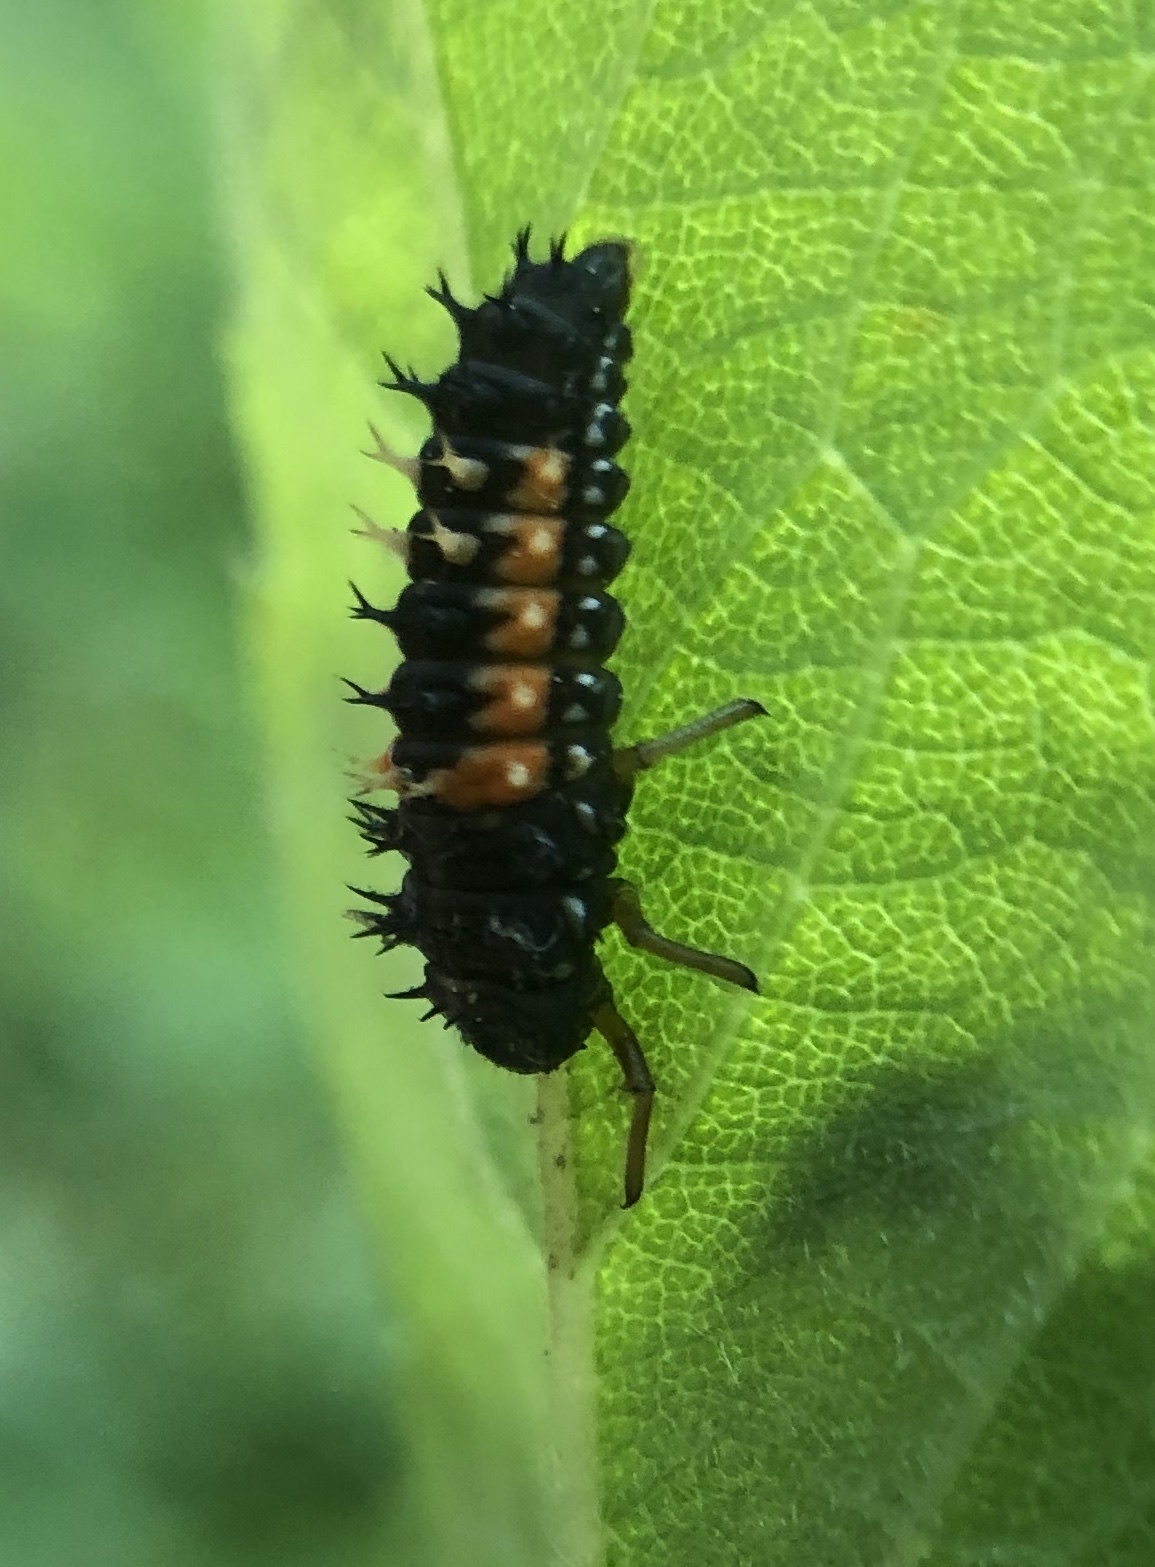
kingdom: Animalia
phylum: Arthropoda
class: Insecta
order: Coleoptera
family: Coccinellidae
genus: Harmonia
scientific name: Harmonia axyridis
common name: Harlequin ladybird
